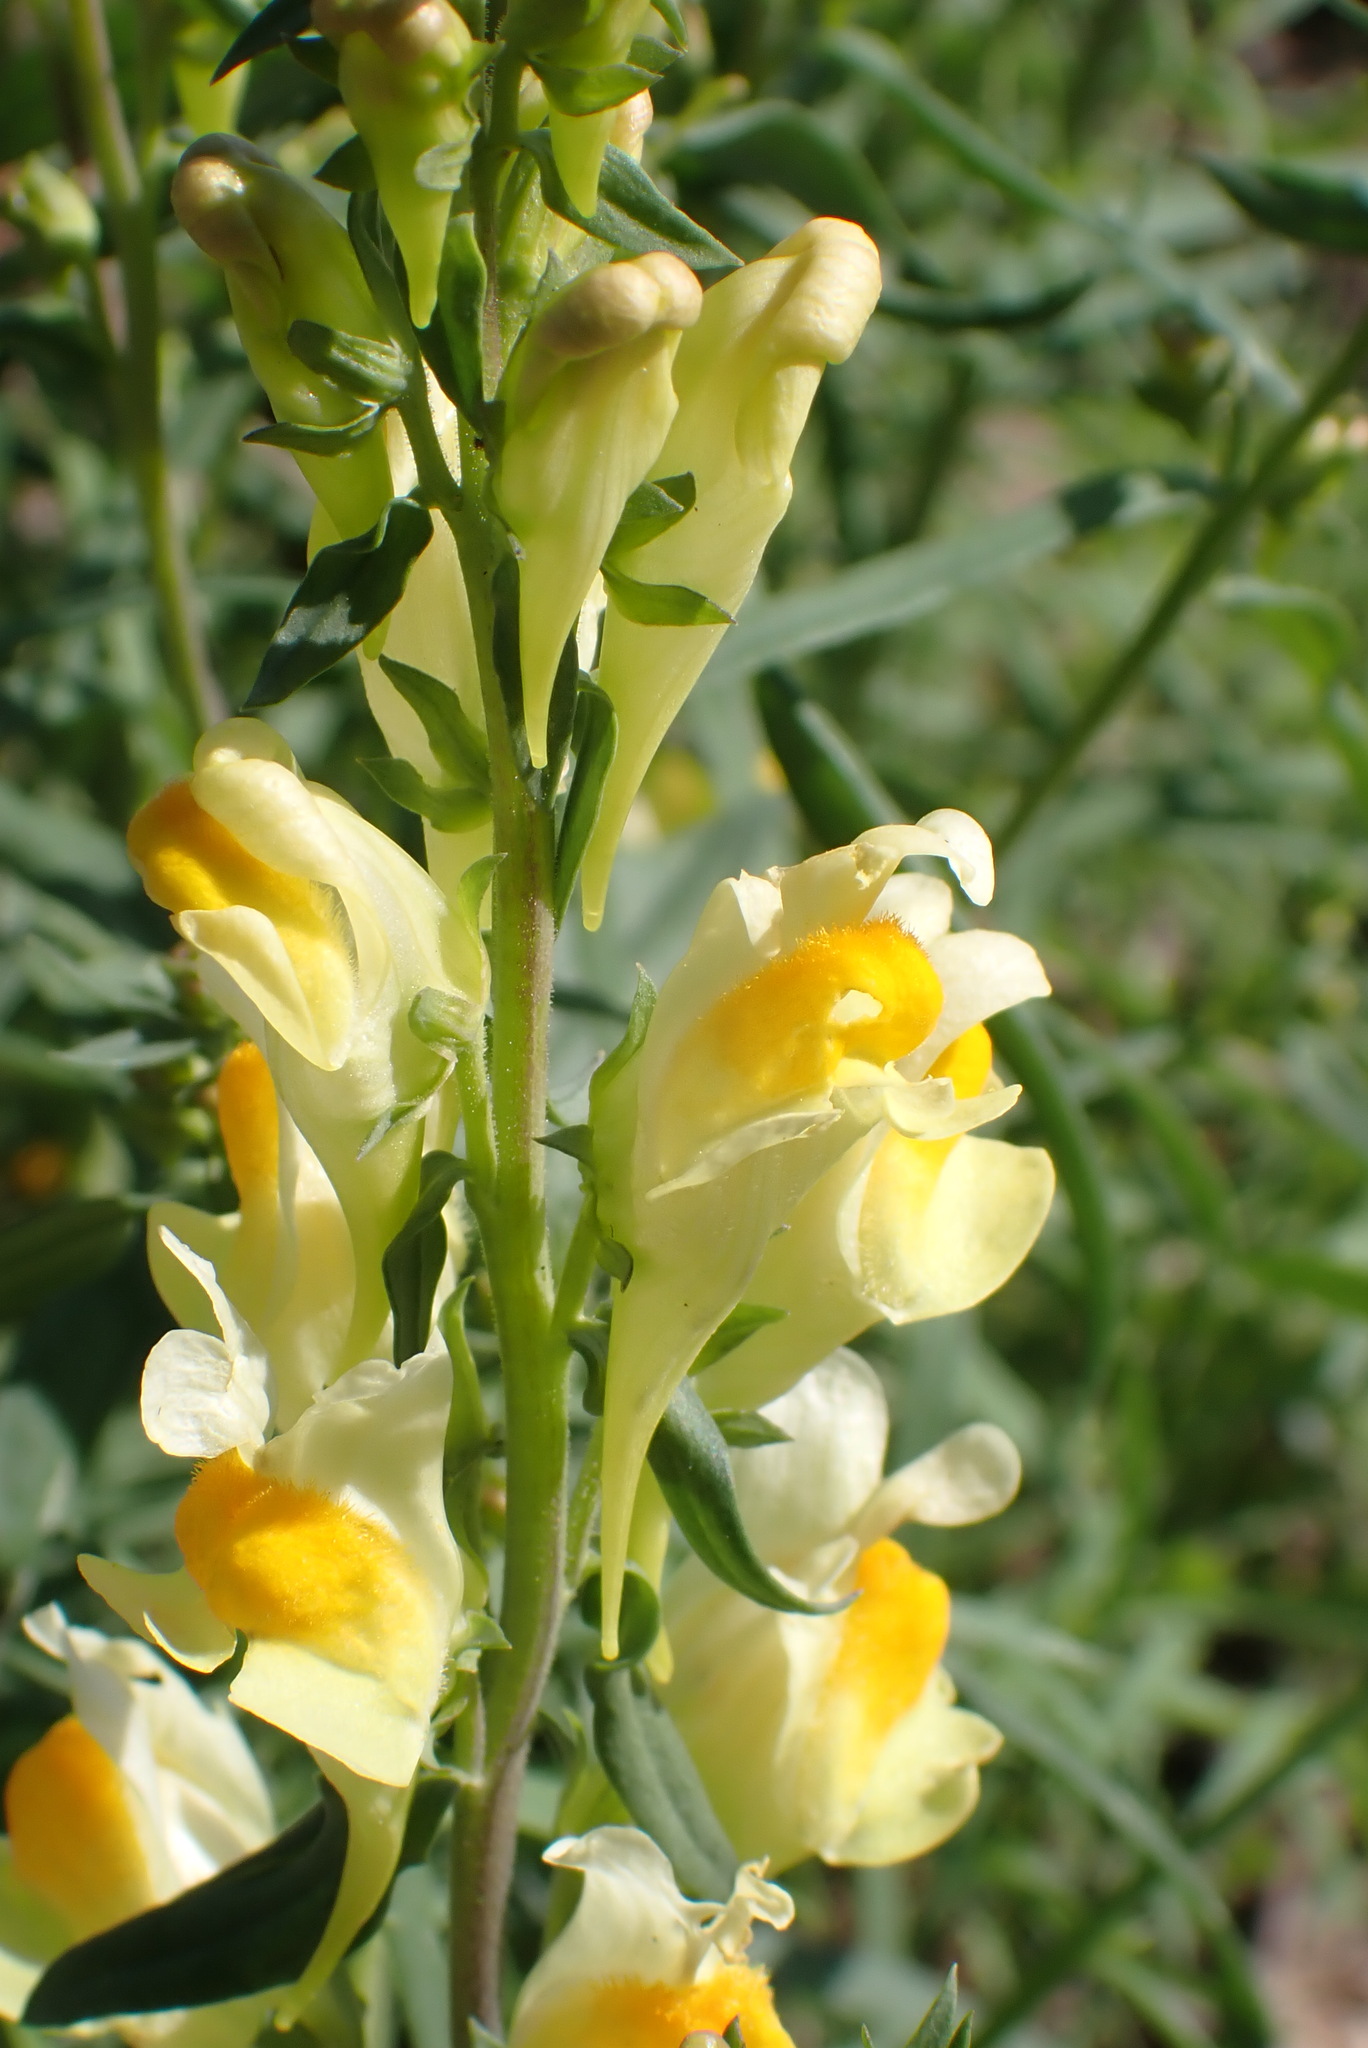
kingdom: Plantae
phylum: Tracheophyta
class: Magnoliopsida
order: Lamiales
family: Plantaginaceae
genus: Linaria
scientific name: Linaria vulgaris
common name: Butter and eggs
